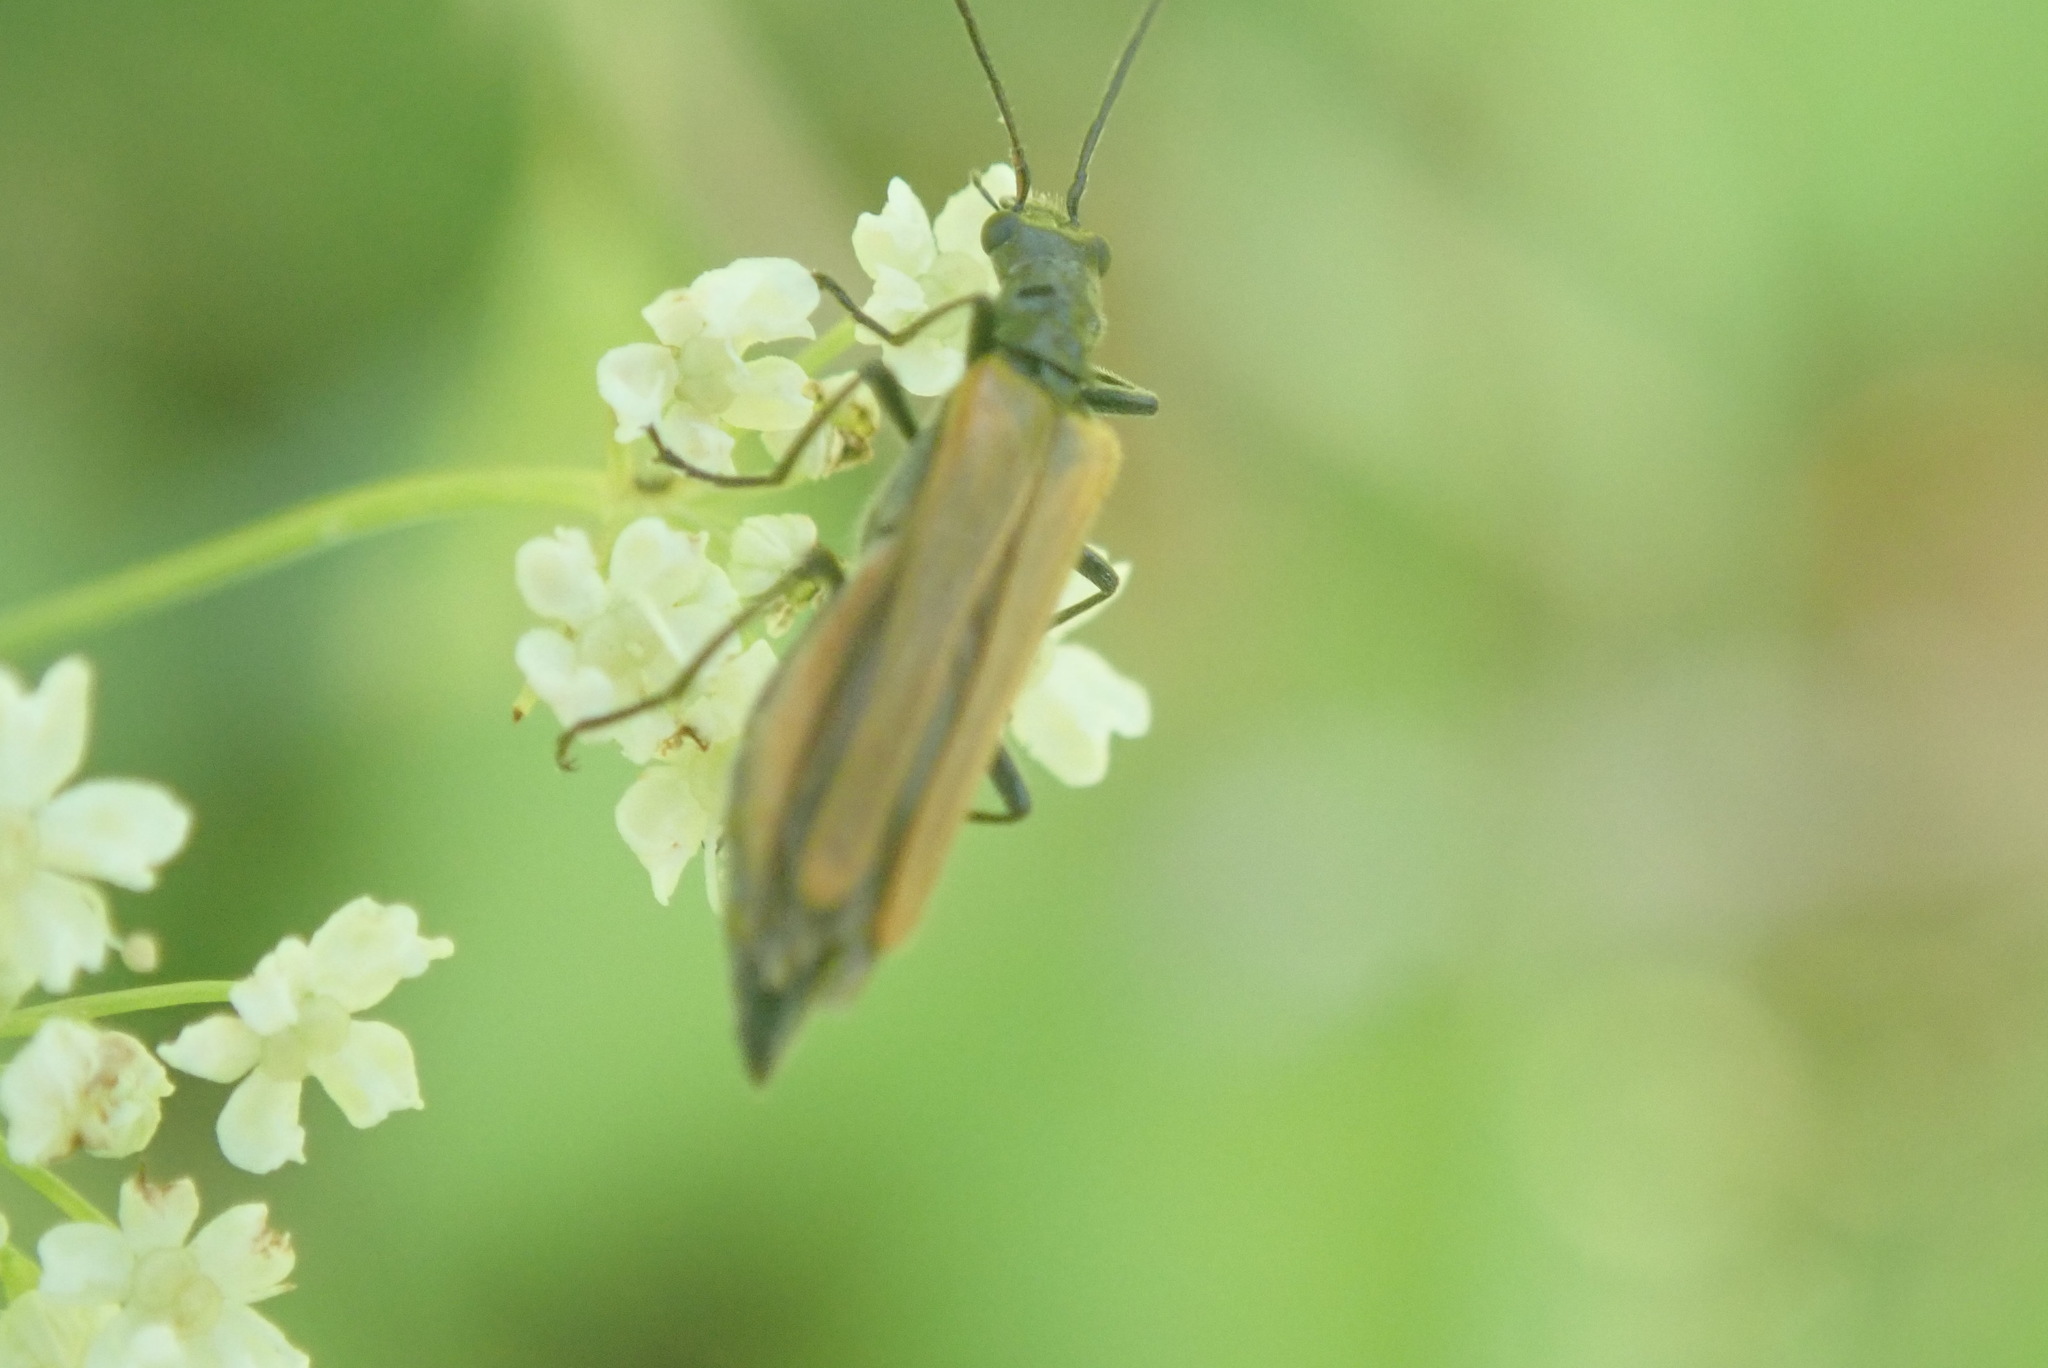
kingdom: Animalia
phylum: Arthropoda
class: Insecta
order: Coleoptera
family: Oedemeridae
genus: Oedemera
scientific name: Oedemera femorata
